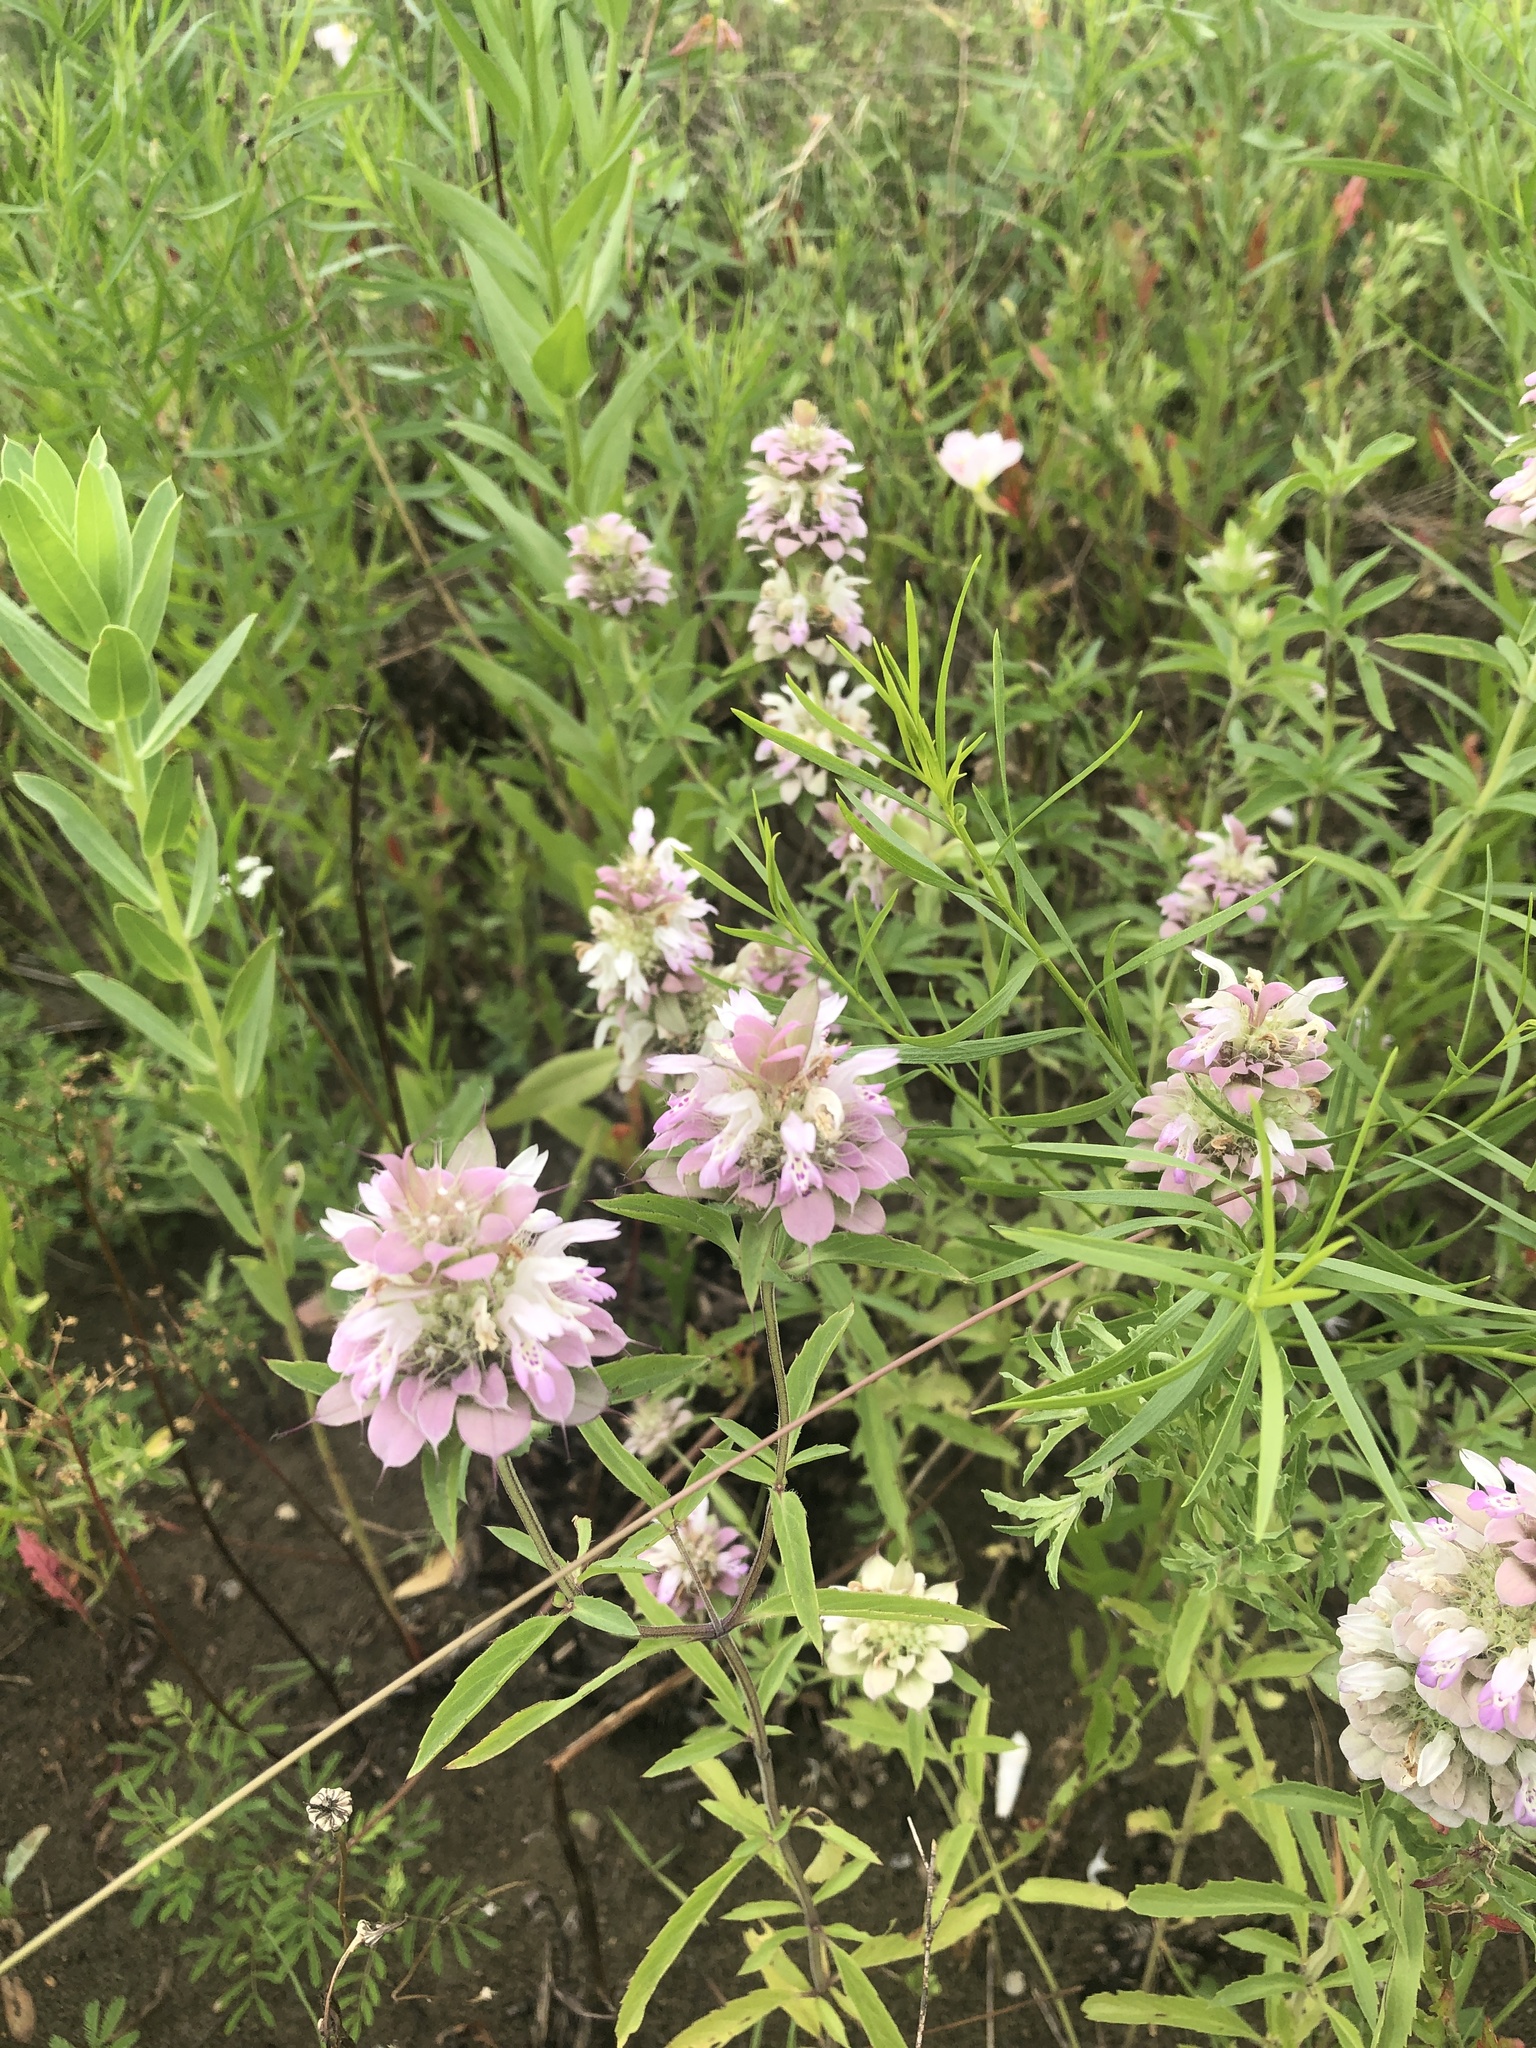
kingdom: Plantae
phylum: Tracheophyta
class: Magnoliopsida
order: Lamiales
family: Lamiaceae
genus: Monarda
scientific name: Monarda citriodora
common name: Lemon beebalm
